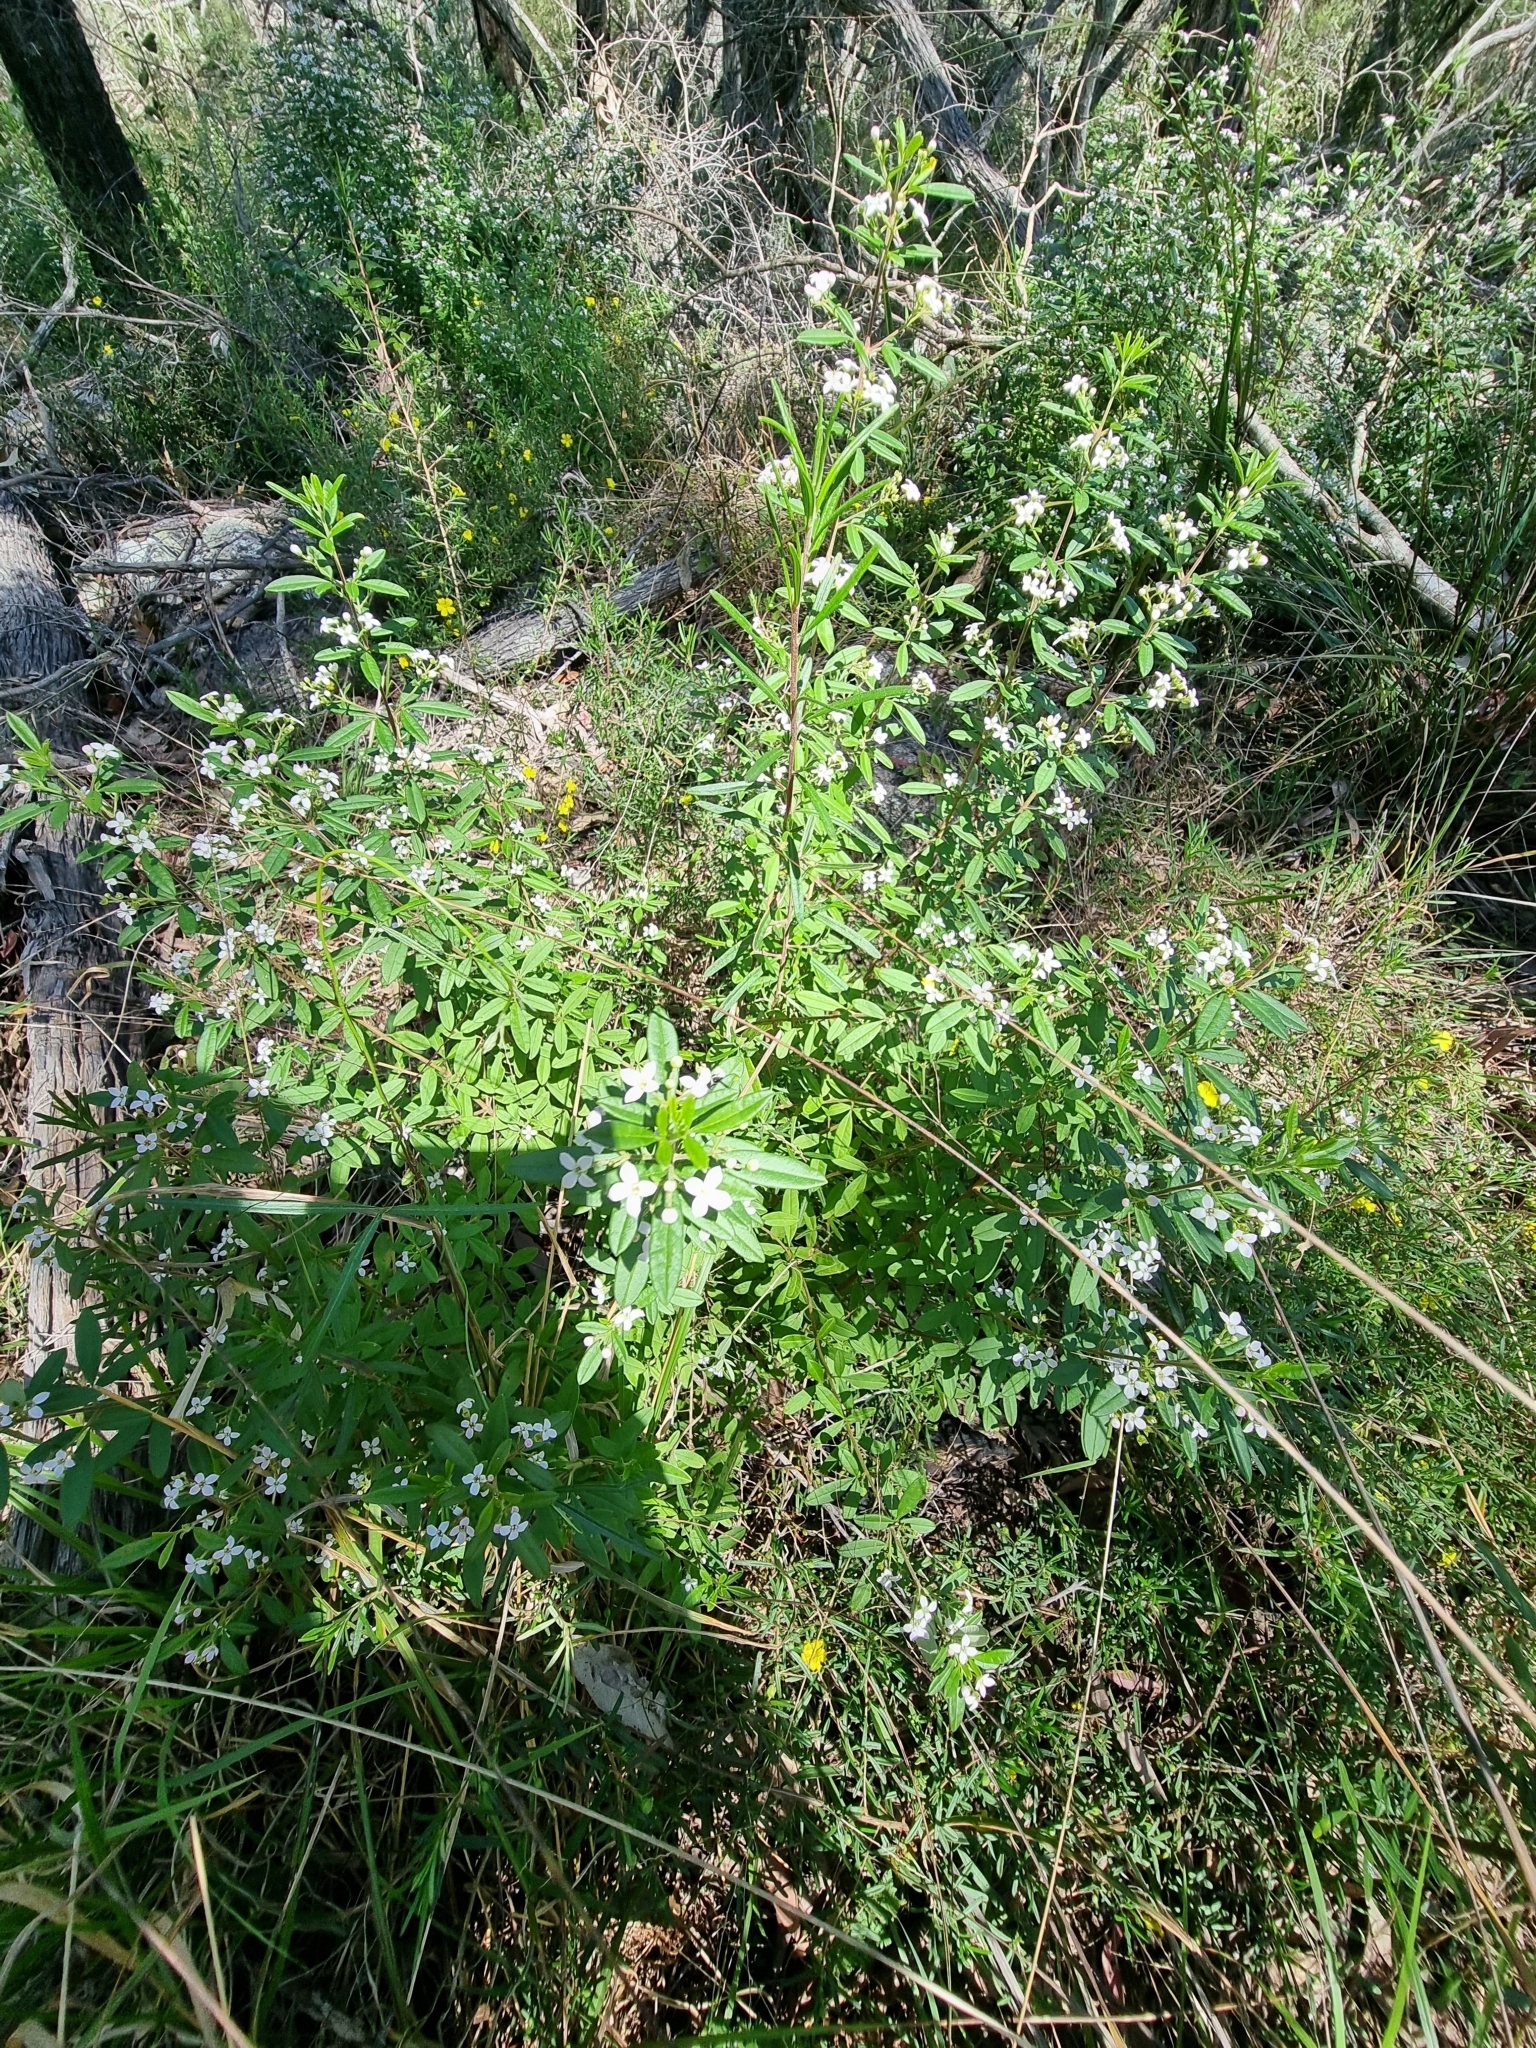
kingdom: Plantae
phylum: Tracheophyta
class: Magnoliopsida
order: Sapindales
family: Rutaceae
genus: Zieria
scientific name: Zieria smithii
